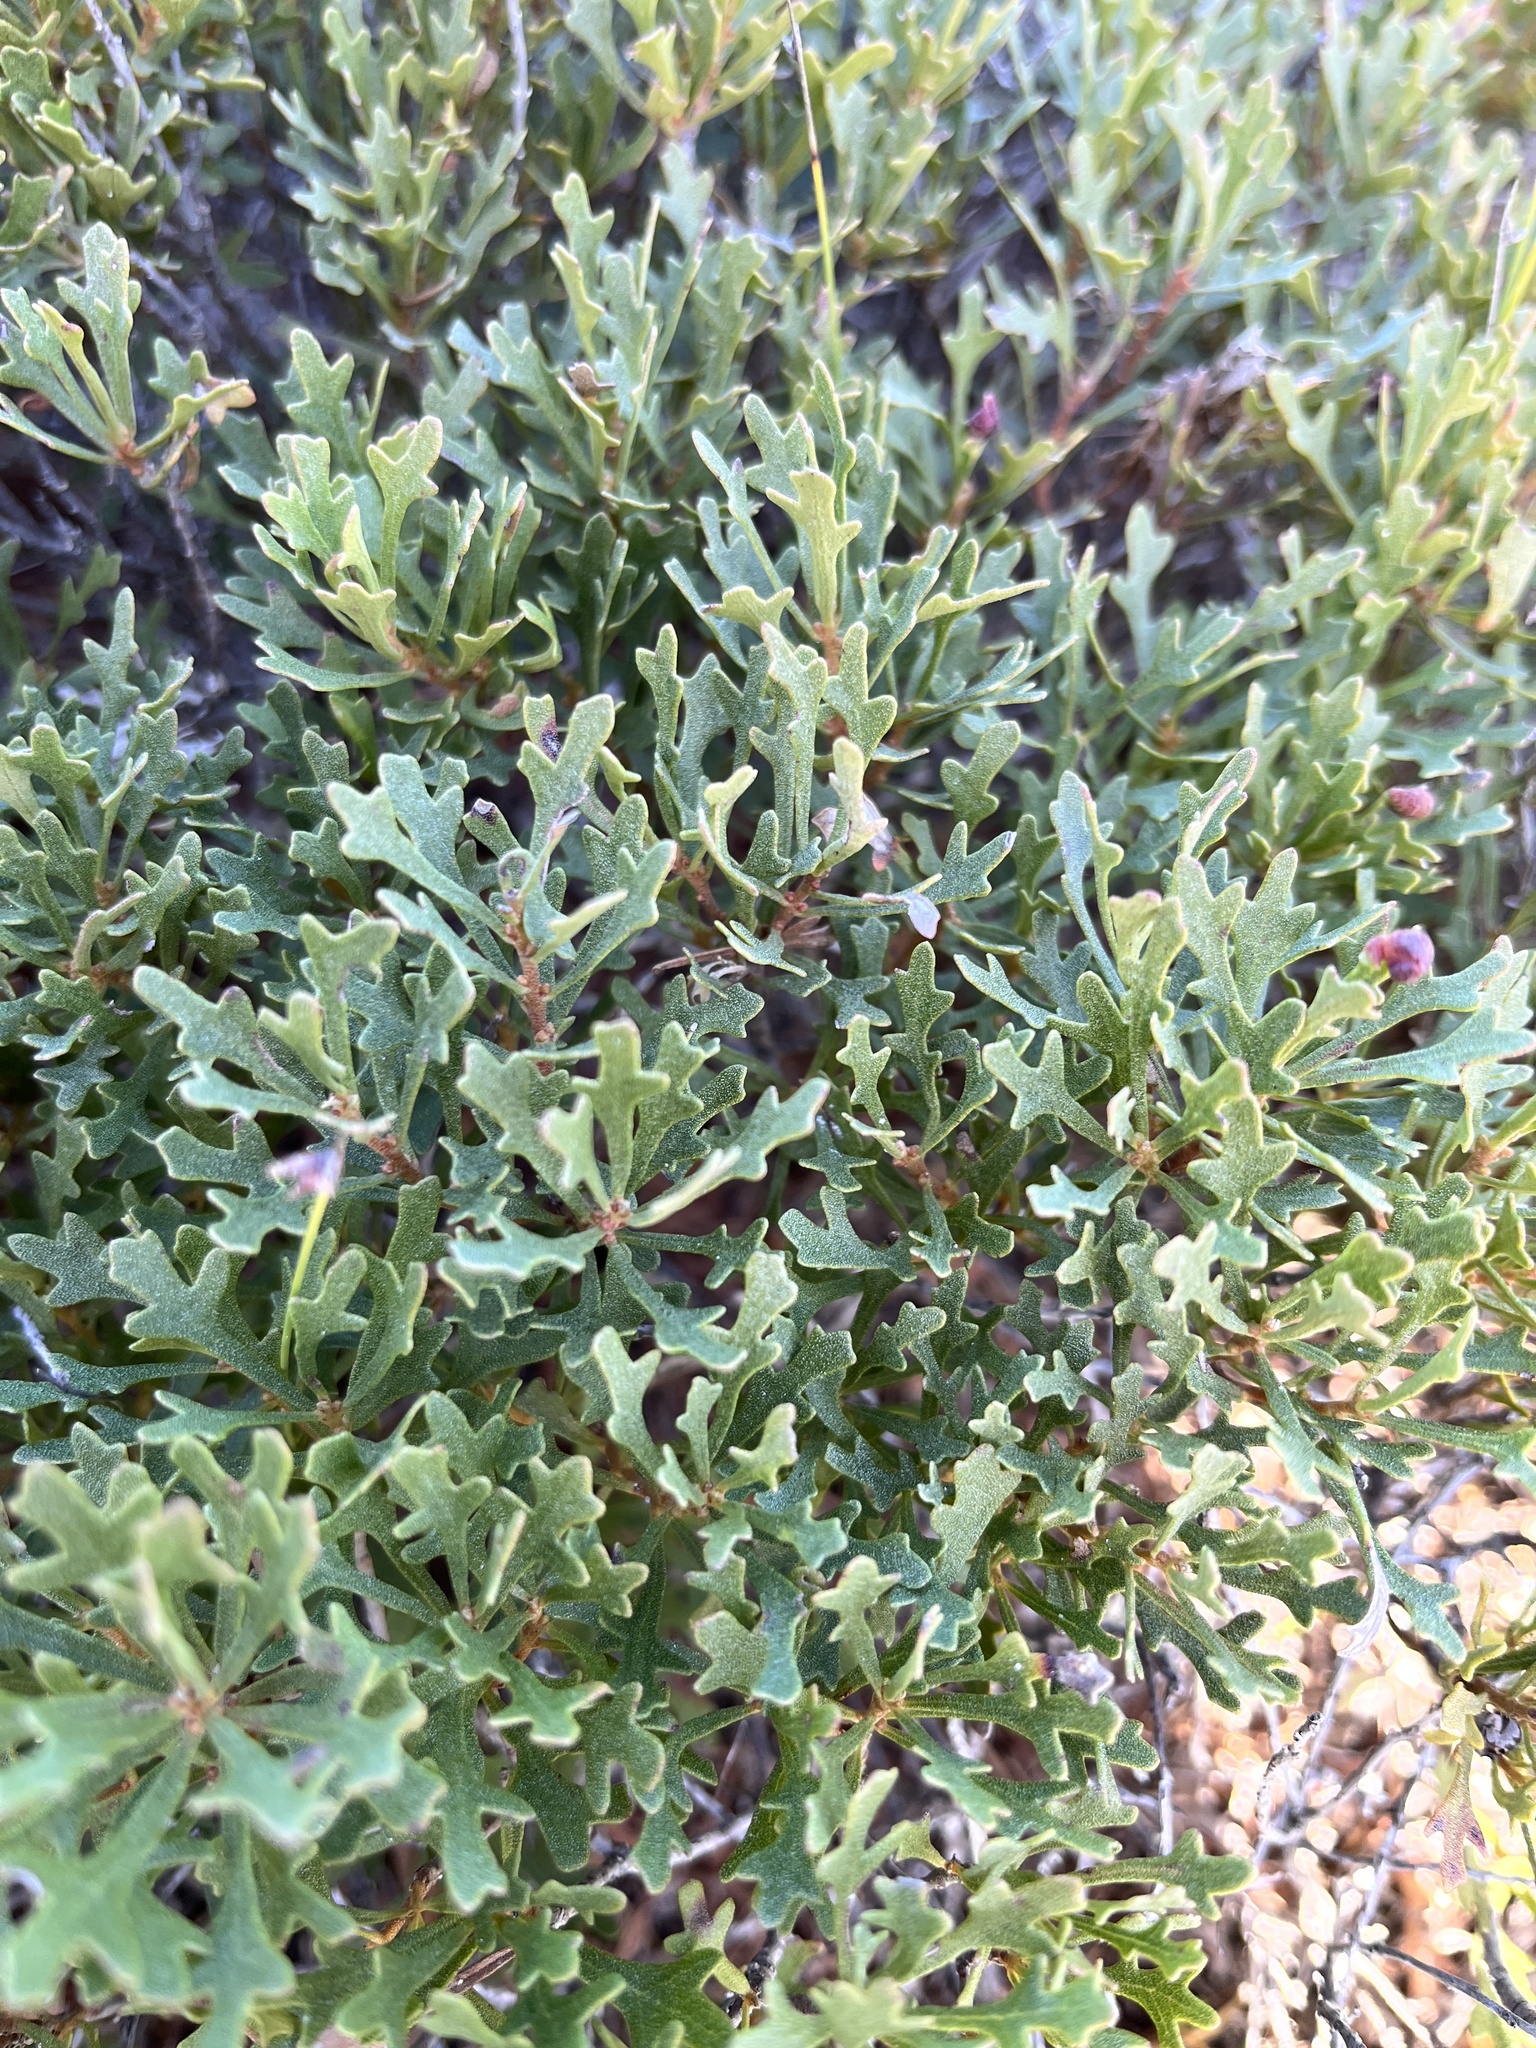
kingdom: Plantae
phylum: Tracheophyta
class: Magnoliopsida
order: Fagales
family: Myricaceae
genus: Morella
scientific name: Morella quercifolia
